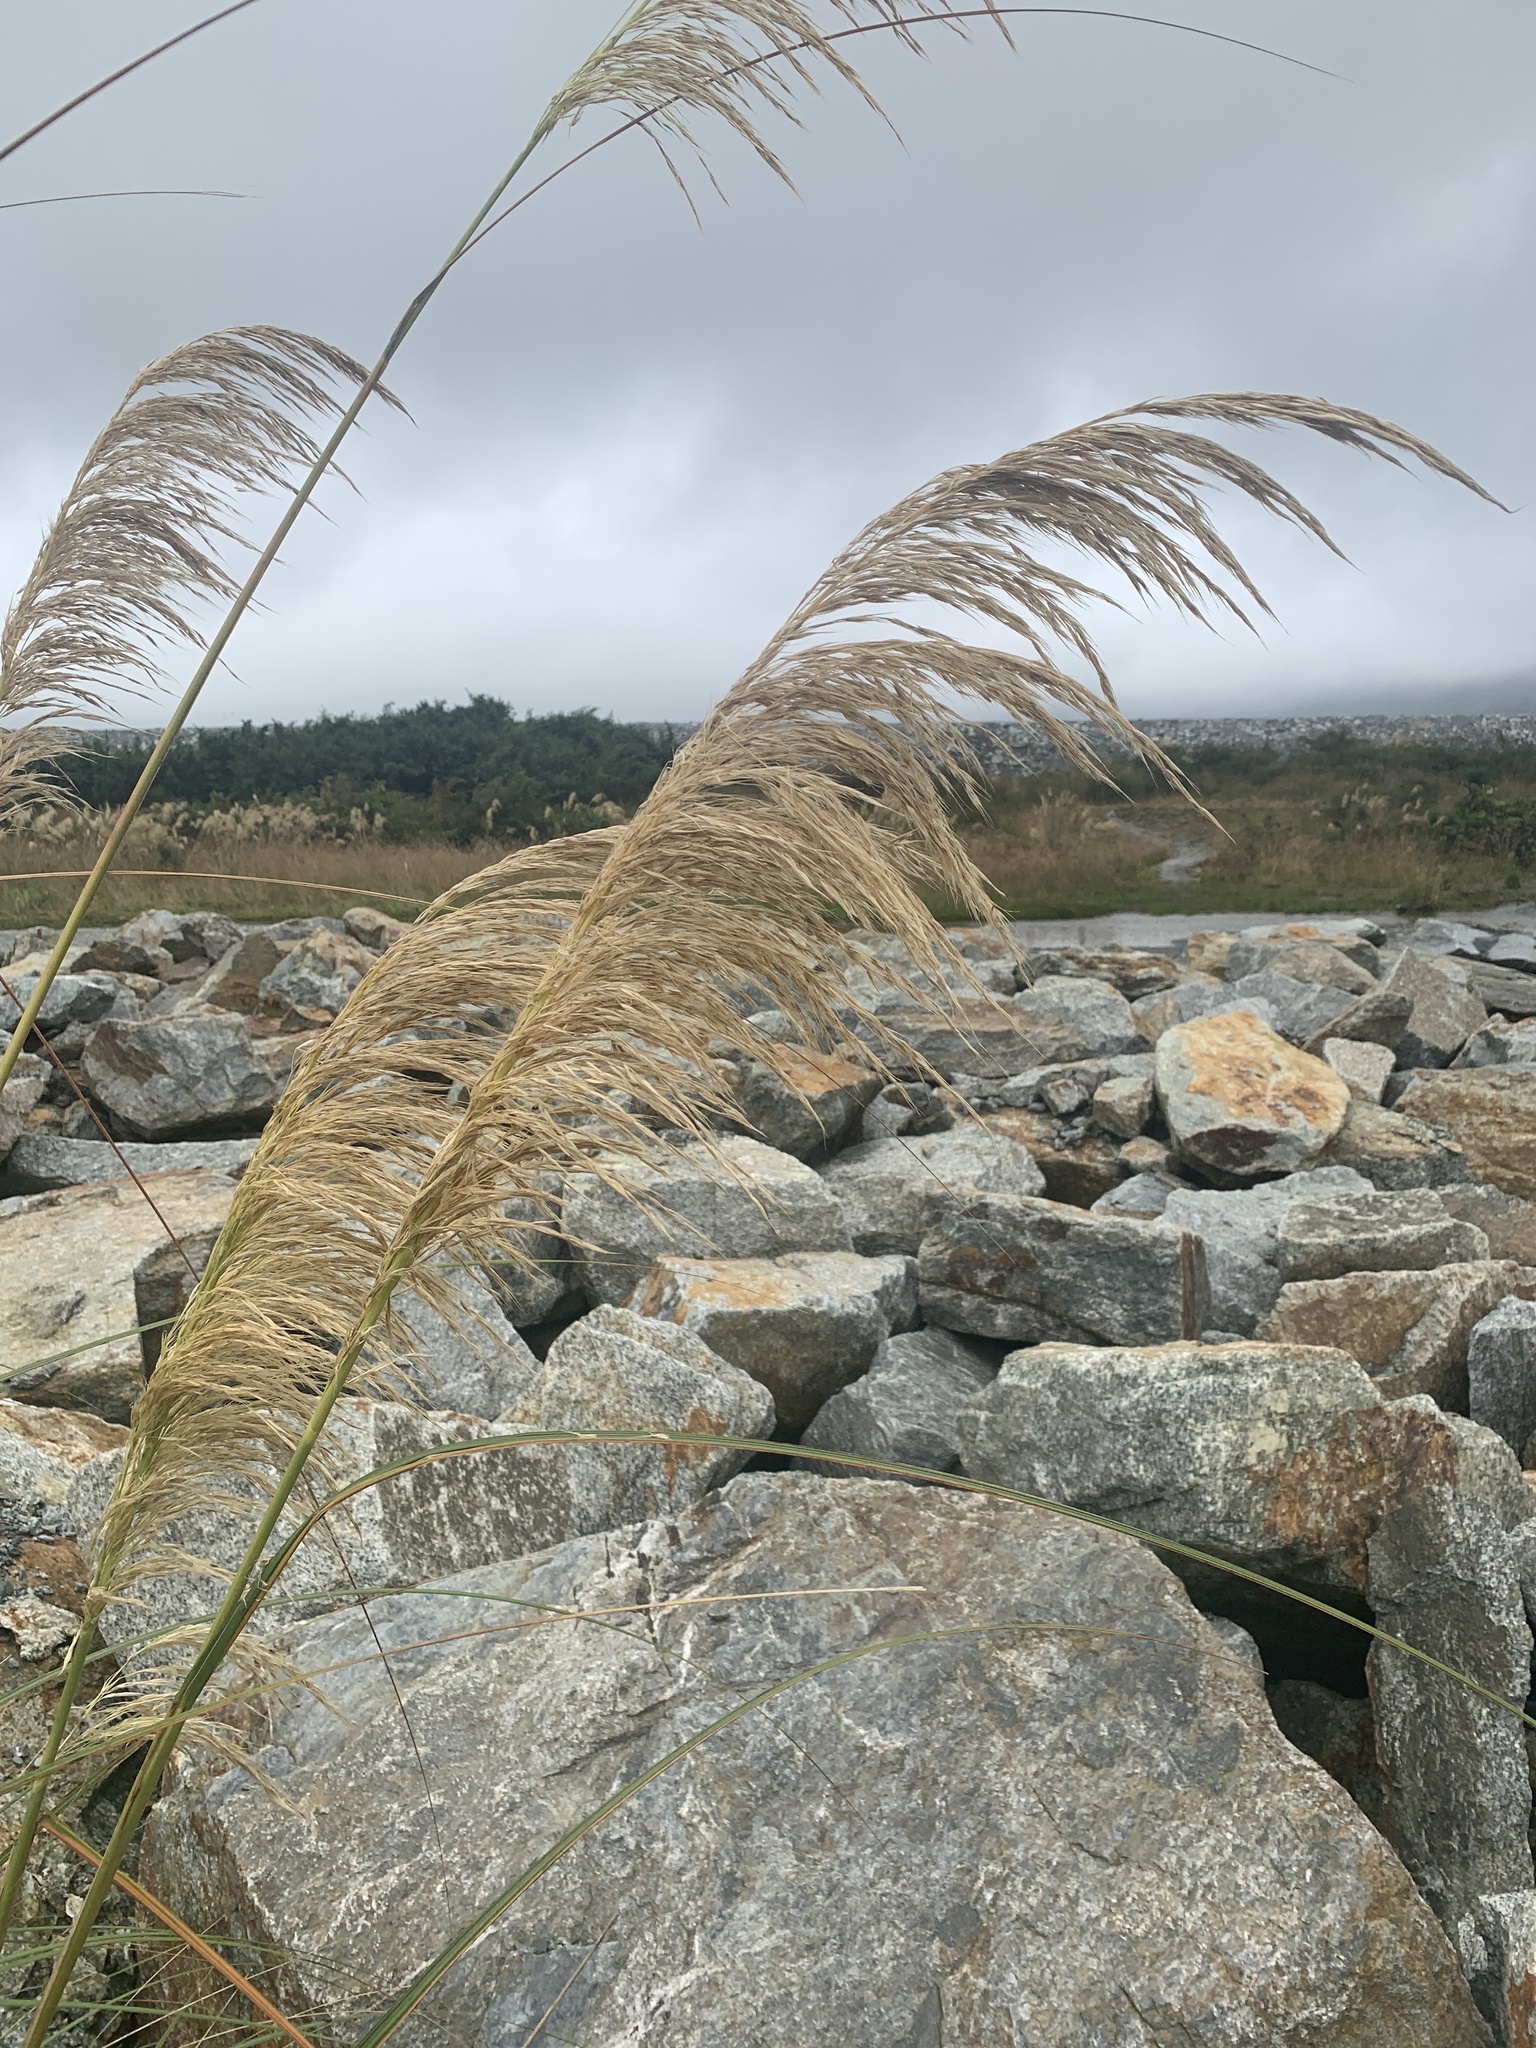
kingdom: Plantae
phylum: Tracheophyta
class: Liliopsida
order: Poales
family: Poaceae
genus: Austroderia
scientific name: Austroderia richardii
